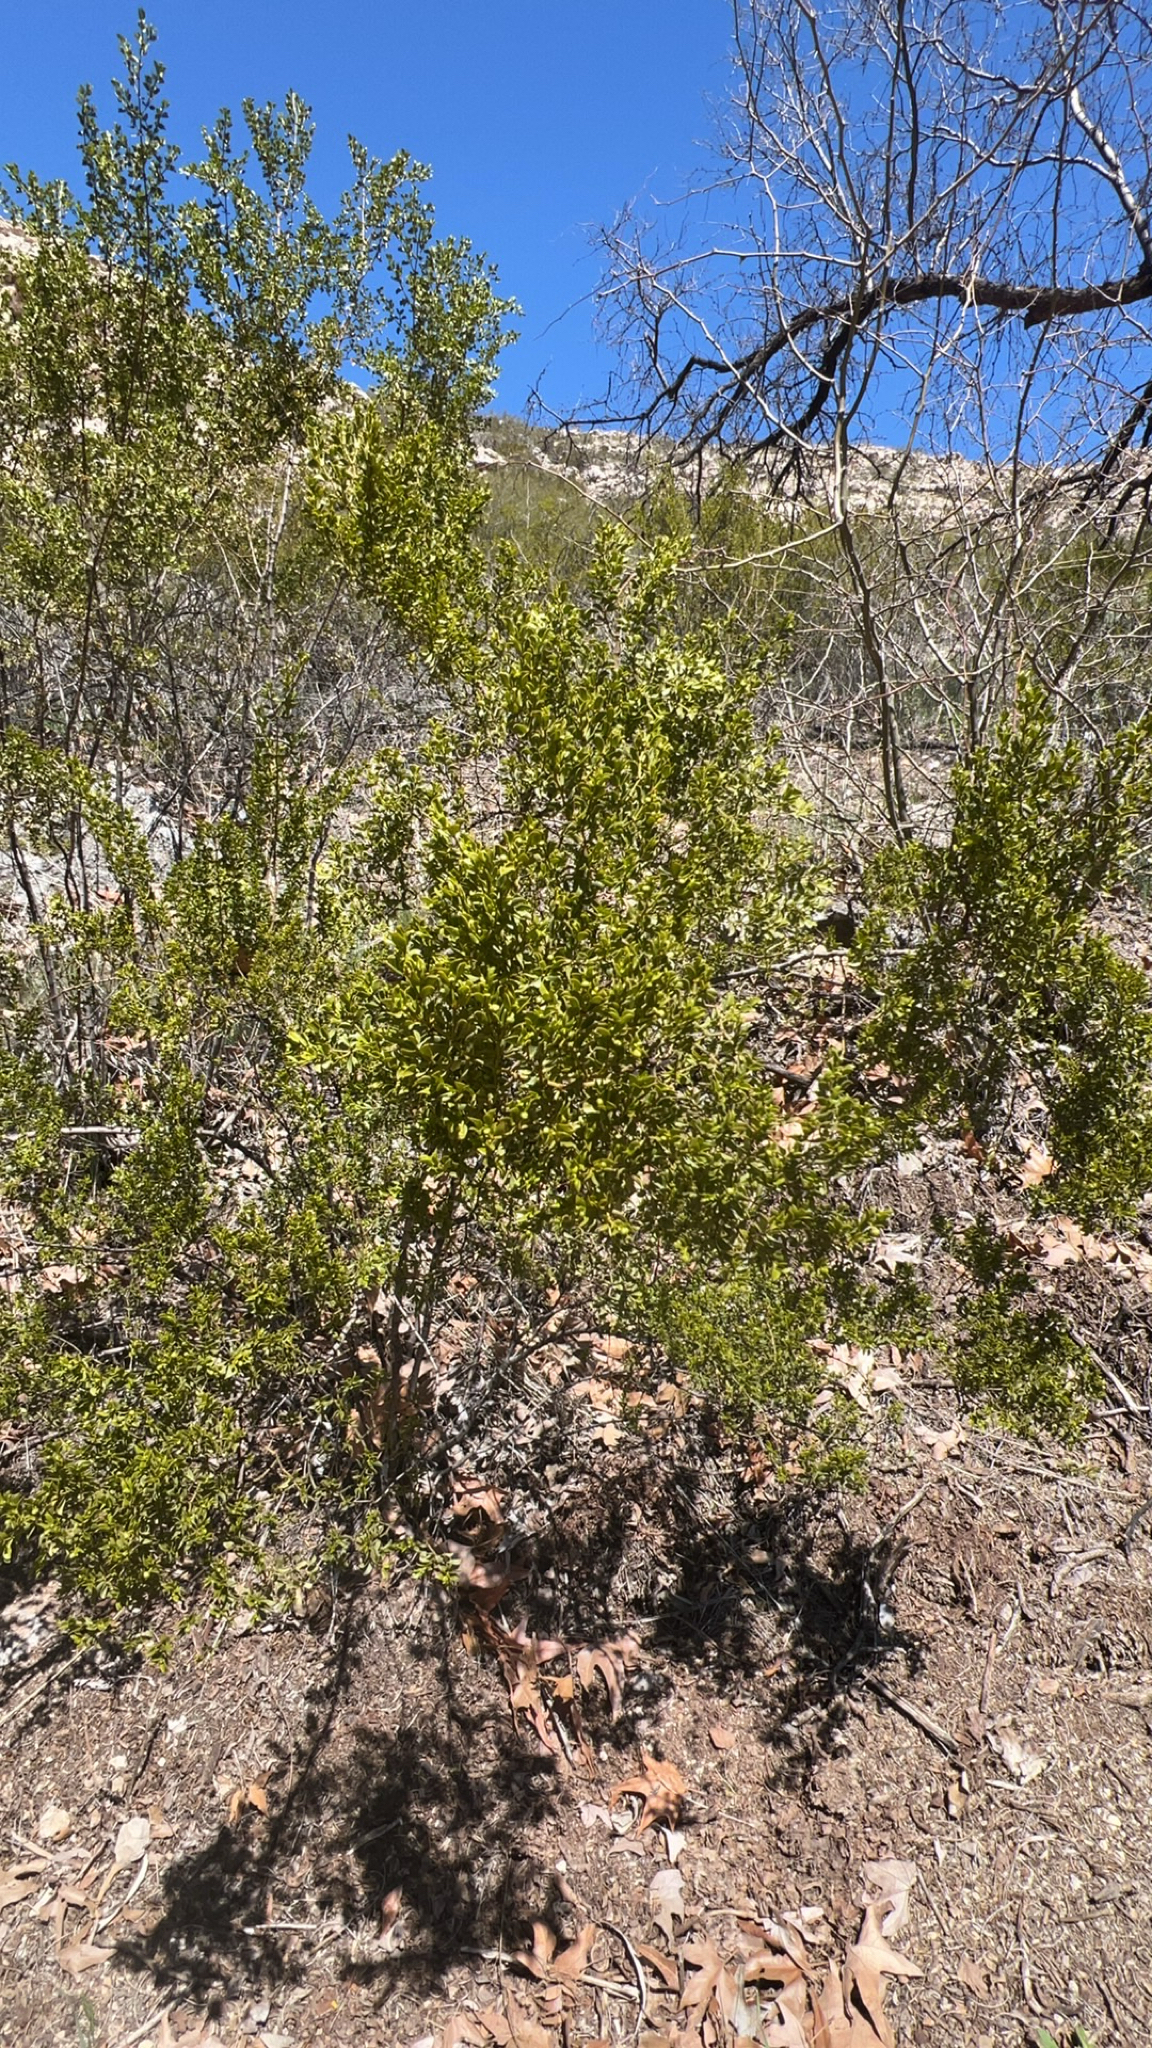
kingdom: Plantae
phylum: Tracheophyta
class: Magnoliopsida
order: Zygophyllales
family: Zygophyllaceae
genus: Larrea
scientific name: Larrea tridentata
